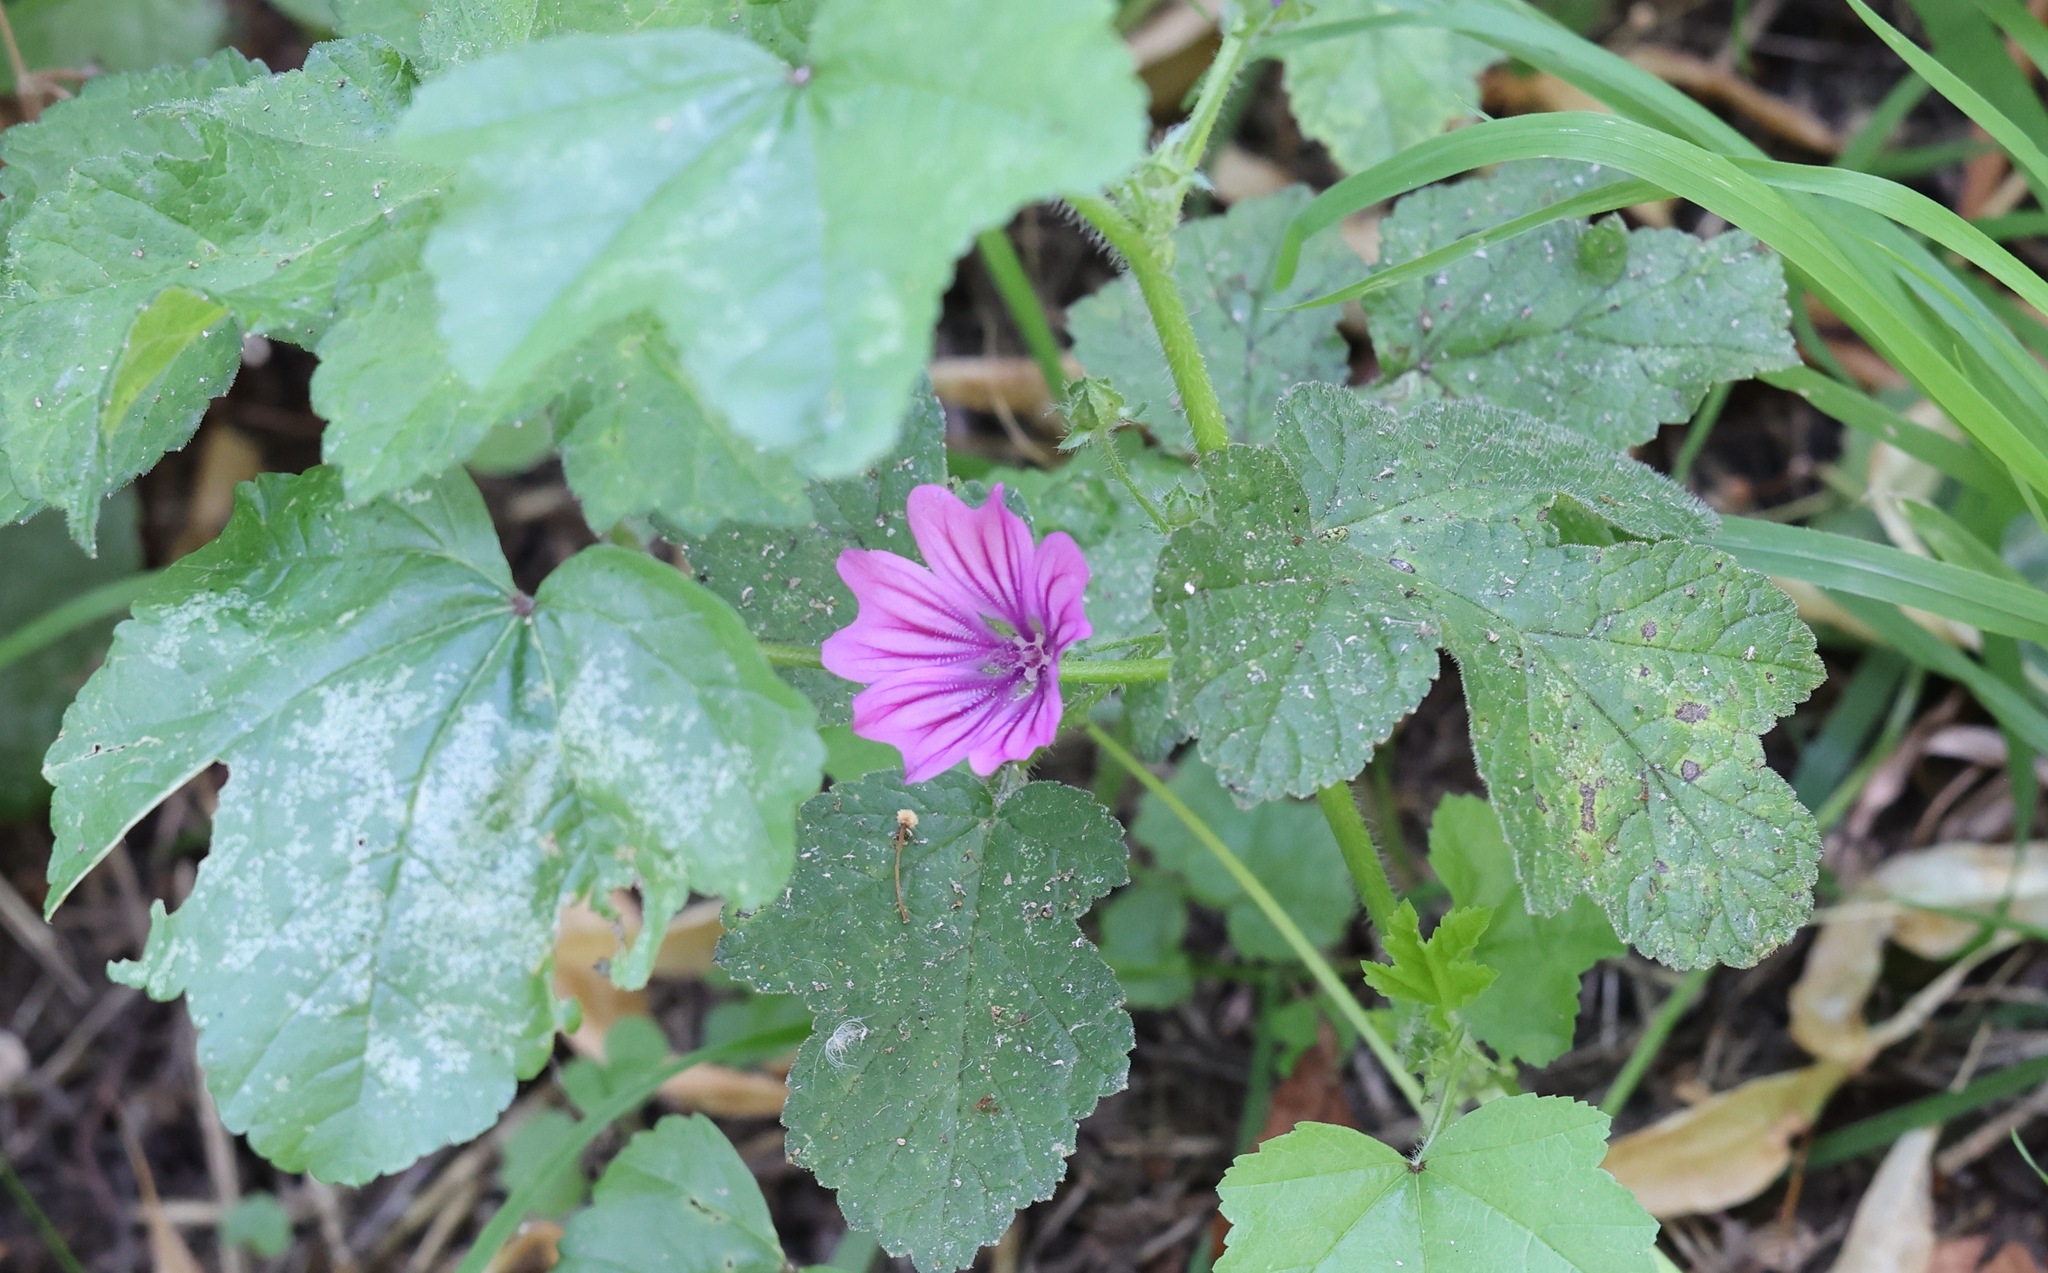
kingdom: Plantae
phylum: Tracheophyta
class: Magnoliopsida
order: Malvales
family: Malvaceae
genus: Malva
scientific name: Malva sylvestris
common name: Common mallow
